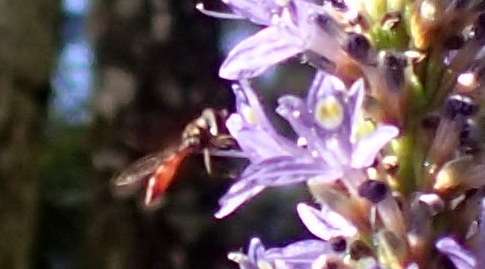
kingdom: Animalia
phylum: Arthropoda
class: Insecta
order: Diptera
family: Syrphidae
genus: Ocyptamus
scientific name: Ocyptamus fuscipennis
